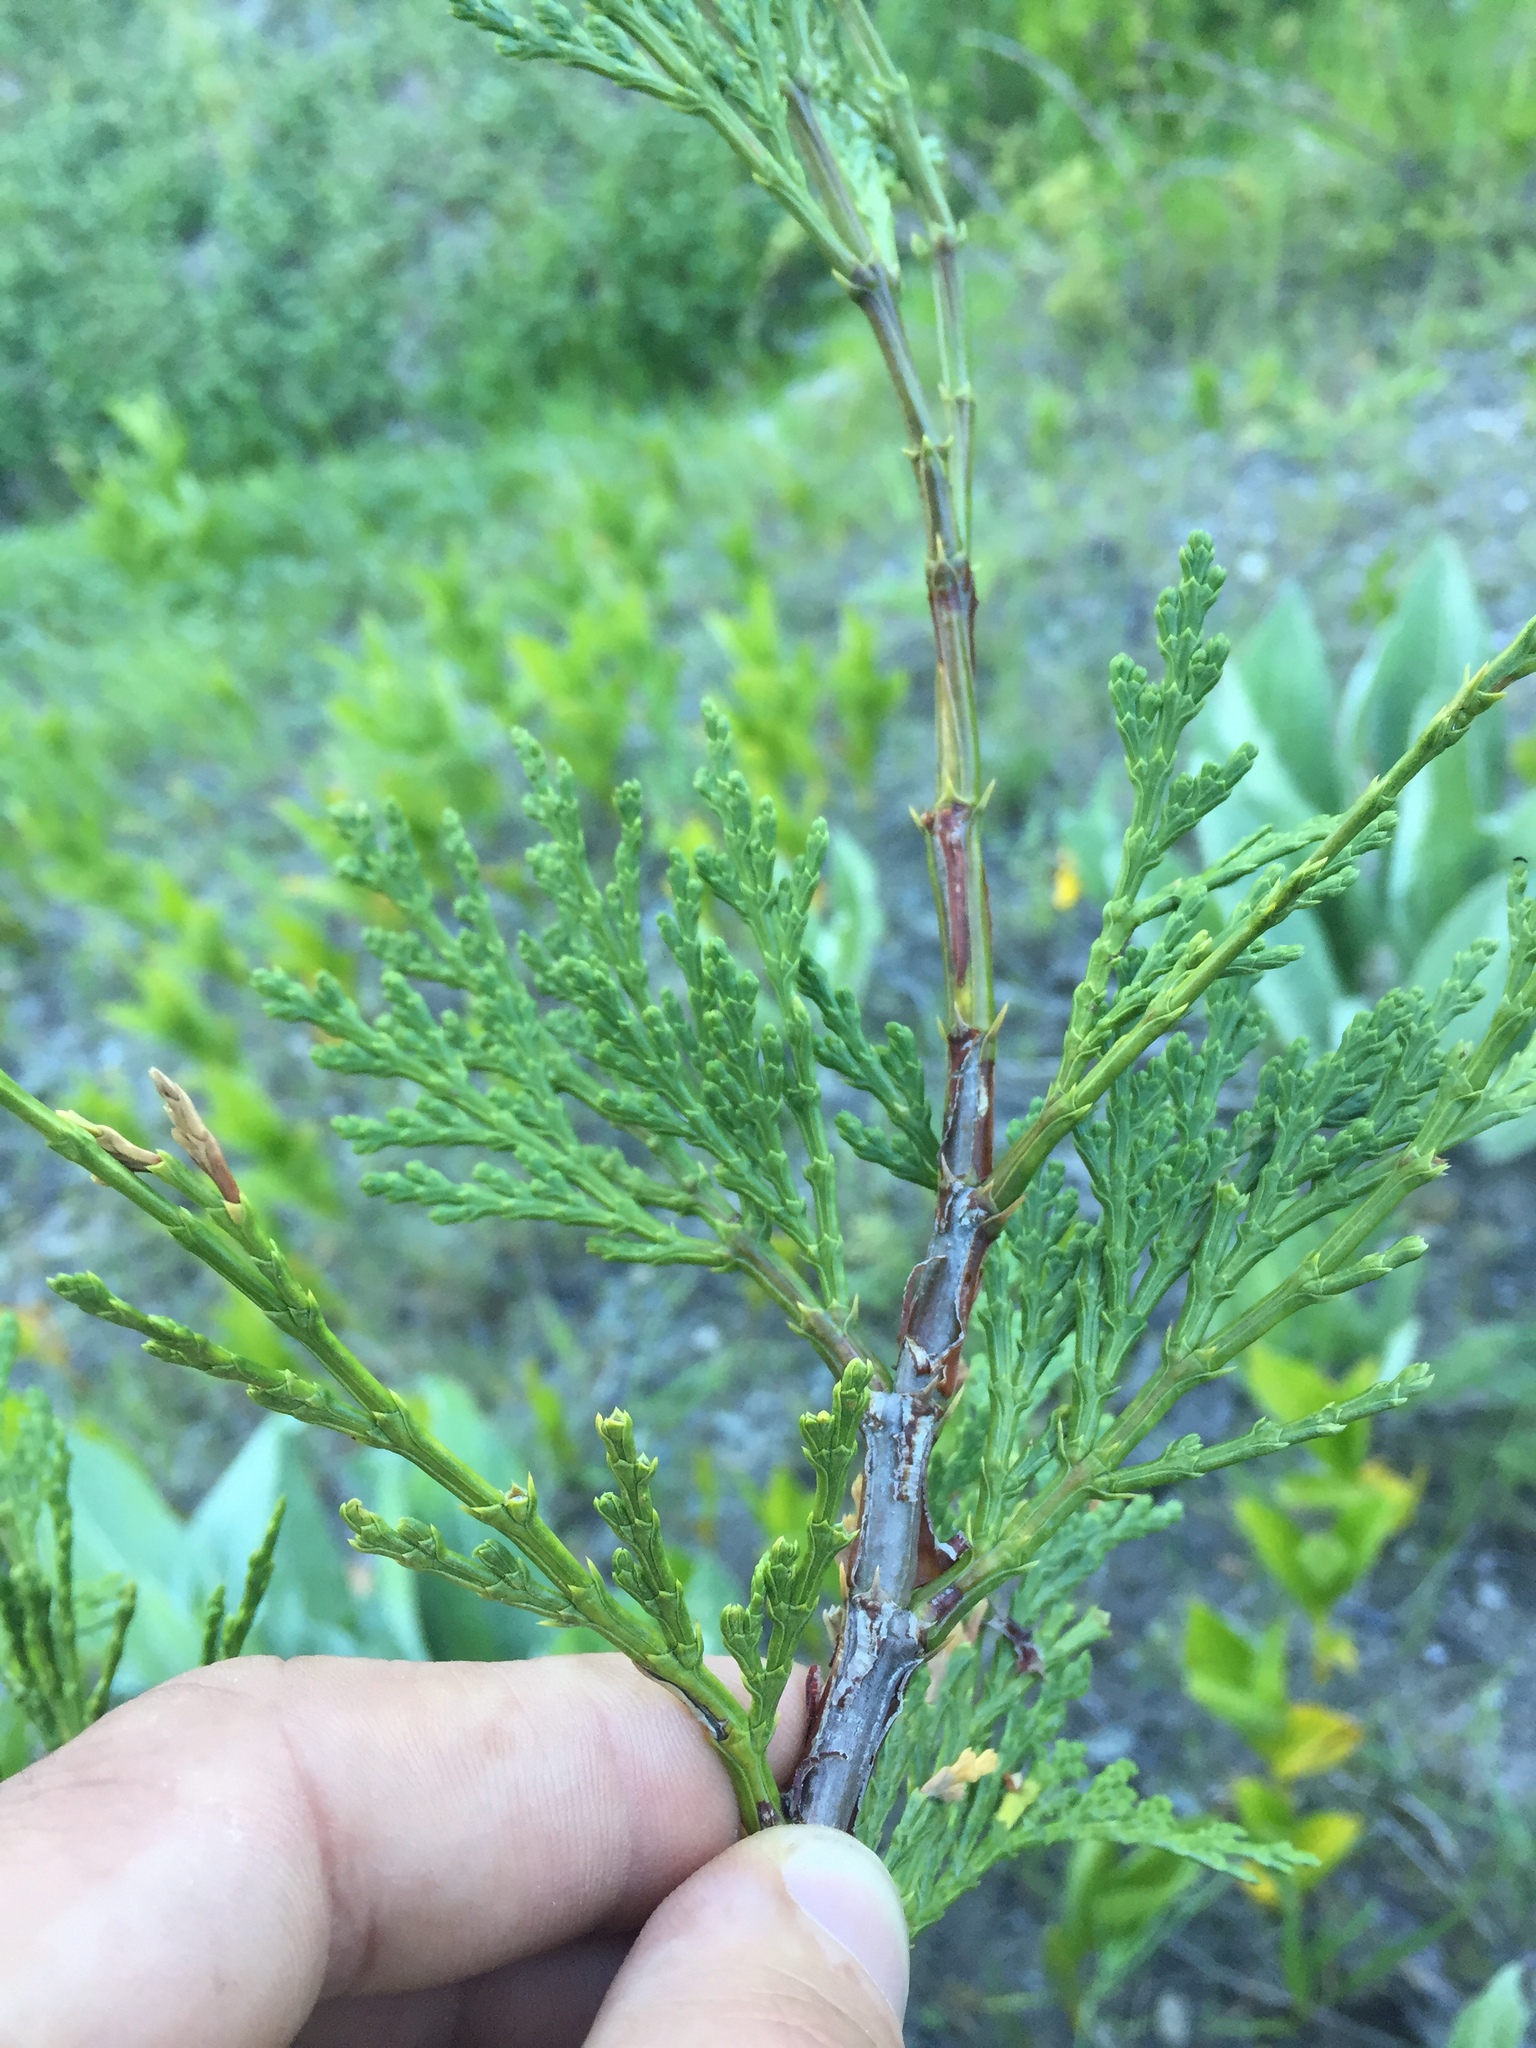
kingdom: Plantae
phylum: Tracheophyta
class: Pinopsida
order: Pinales
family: Cupressaceae
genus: Calocedrus
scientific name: Calocedrus decurrens
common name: Californian incense-cedar
